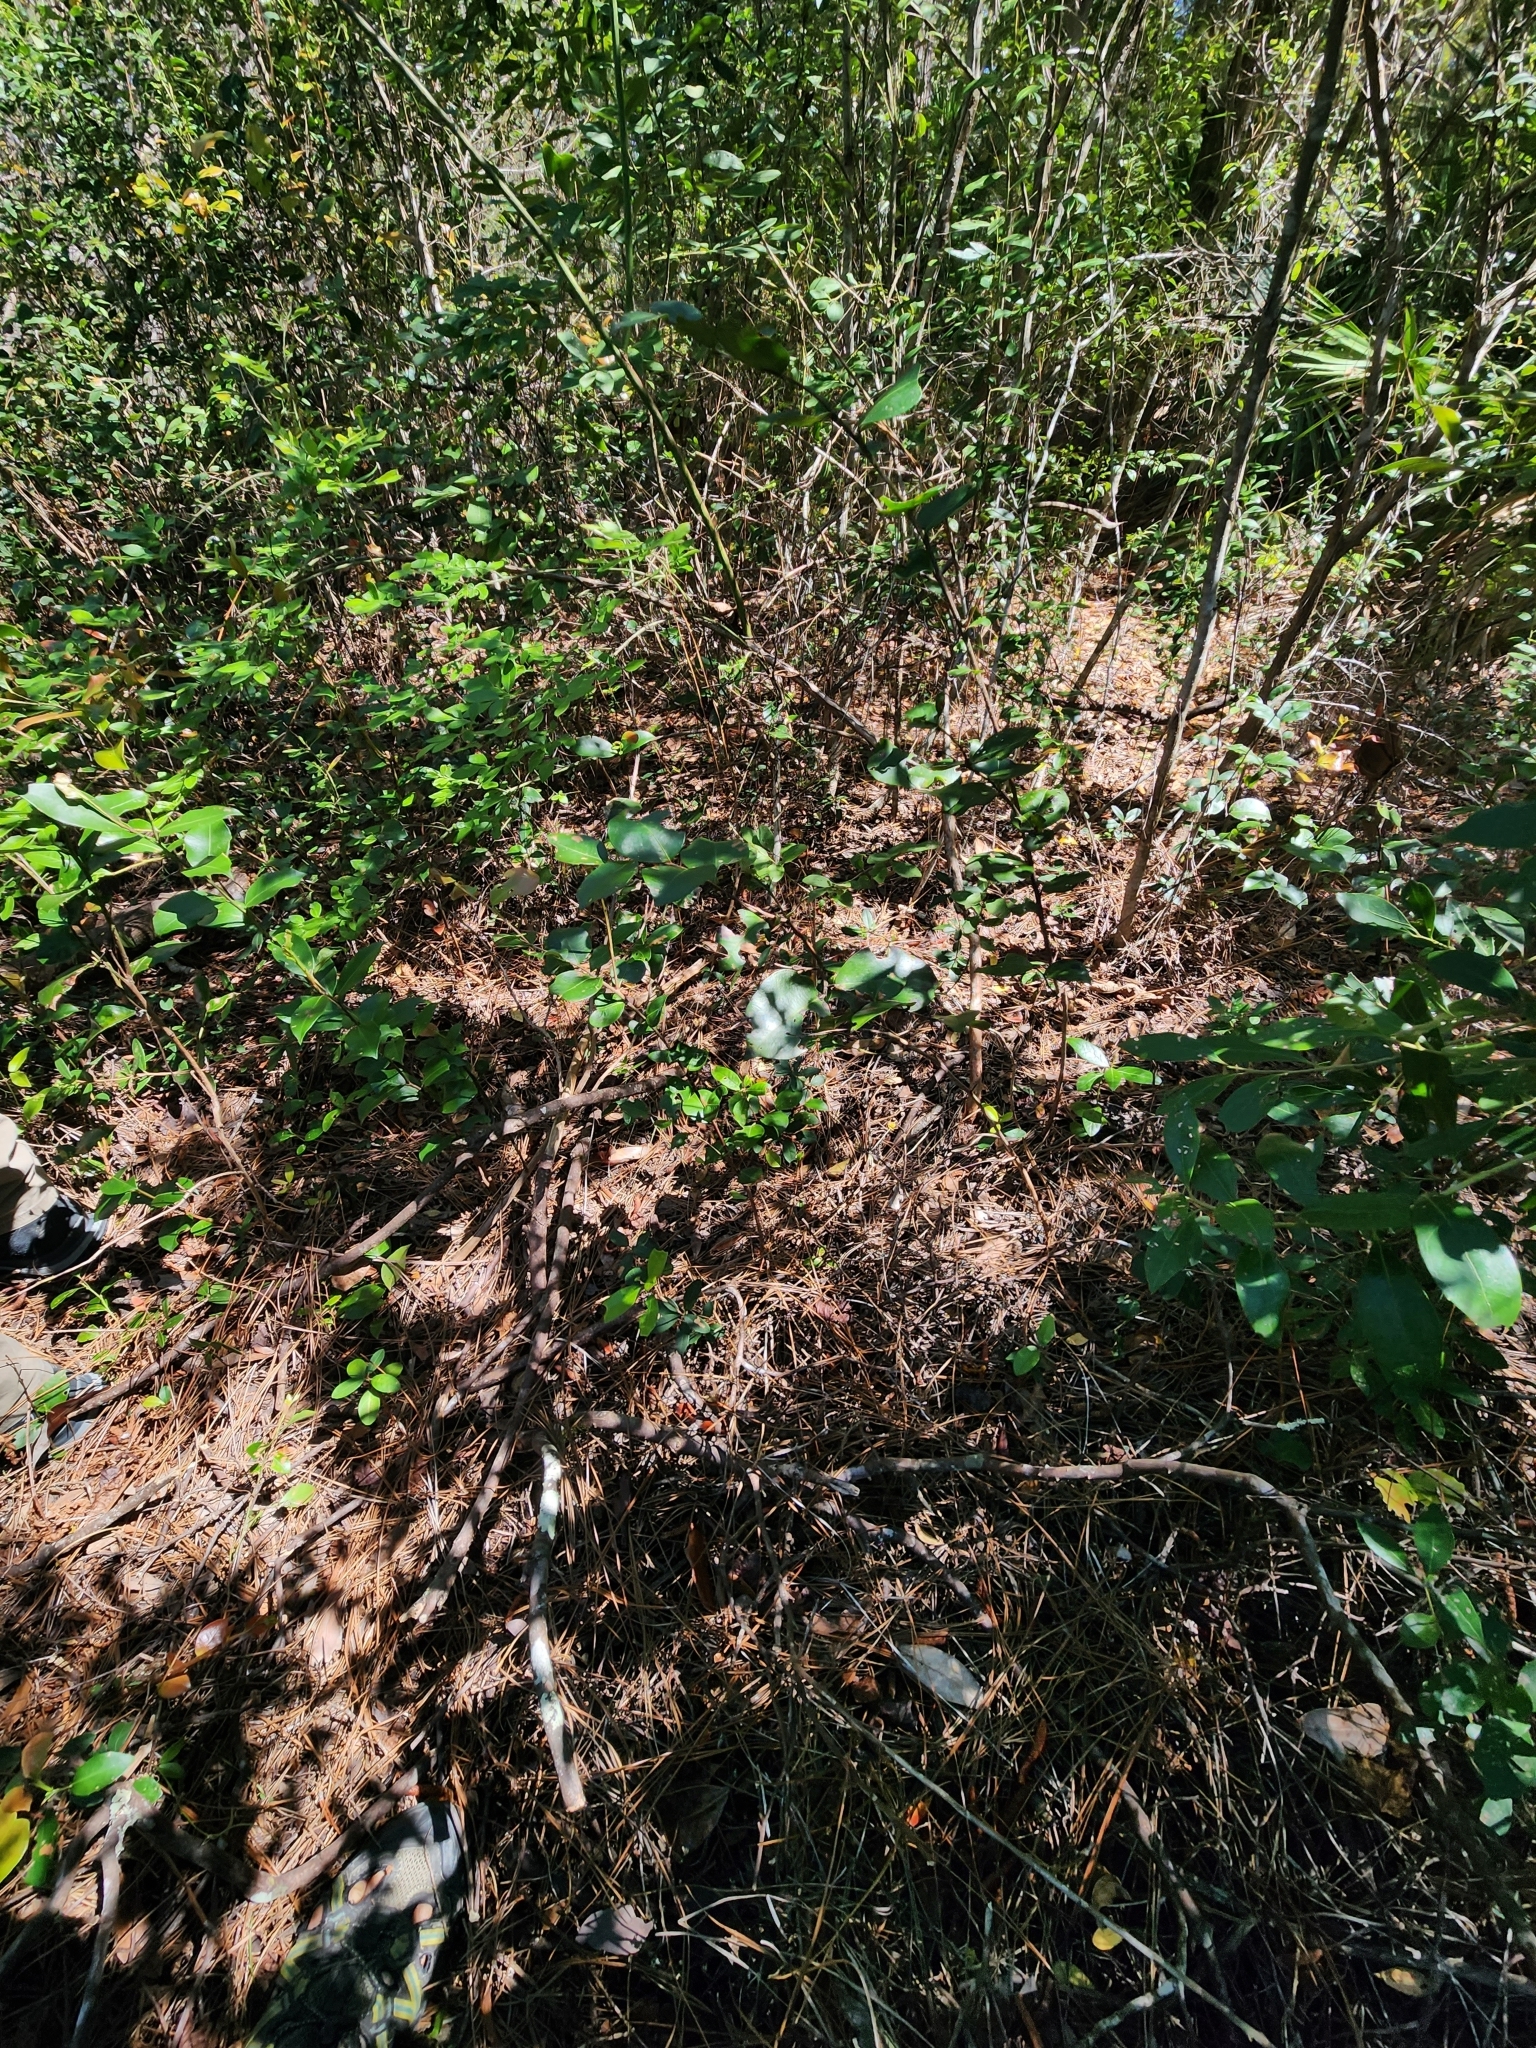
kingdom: Plantae
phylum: Tracheophyta
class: Magnoliopsida
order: Ericales
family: Ericaceae
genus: Pieris
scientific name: Pieris phillyreifolia
